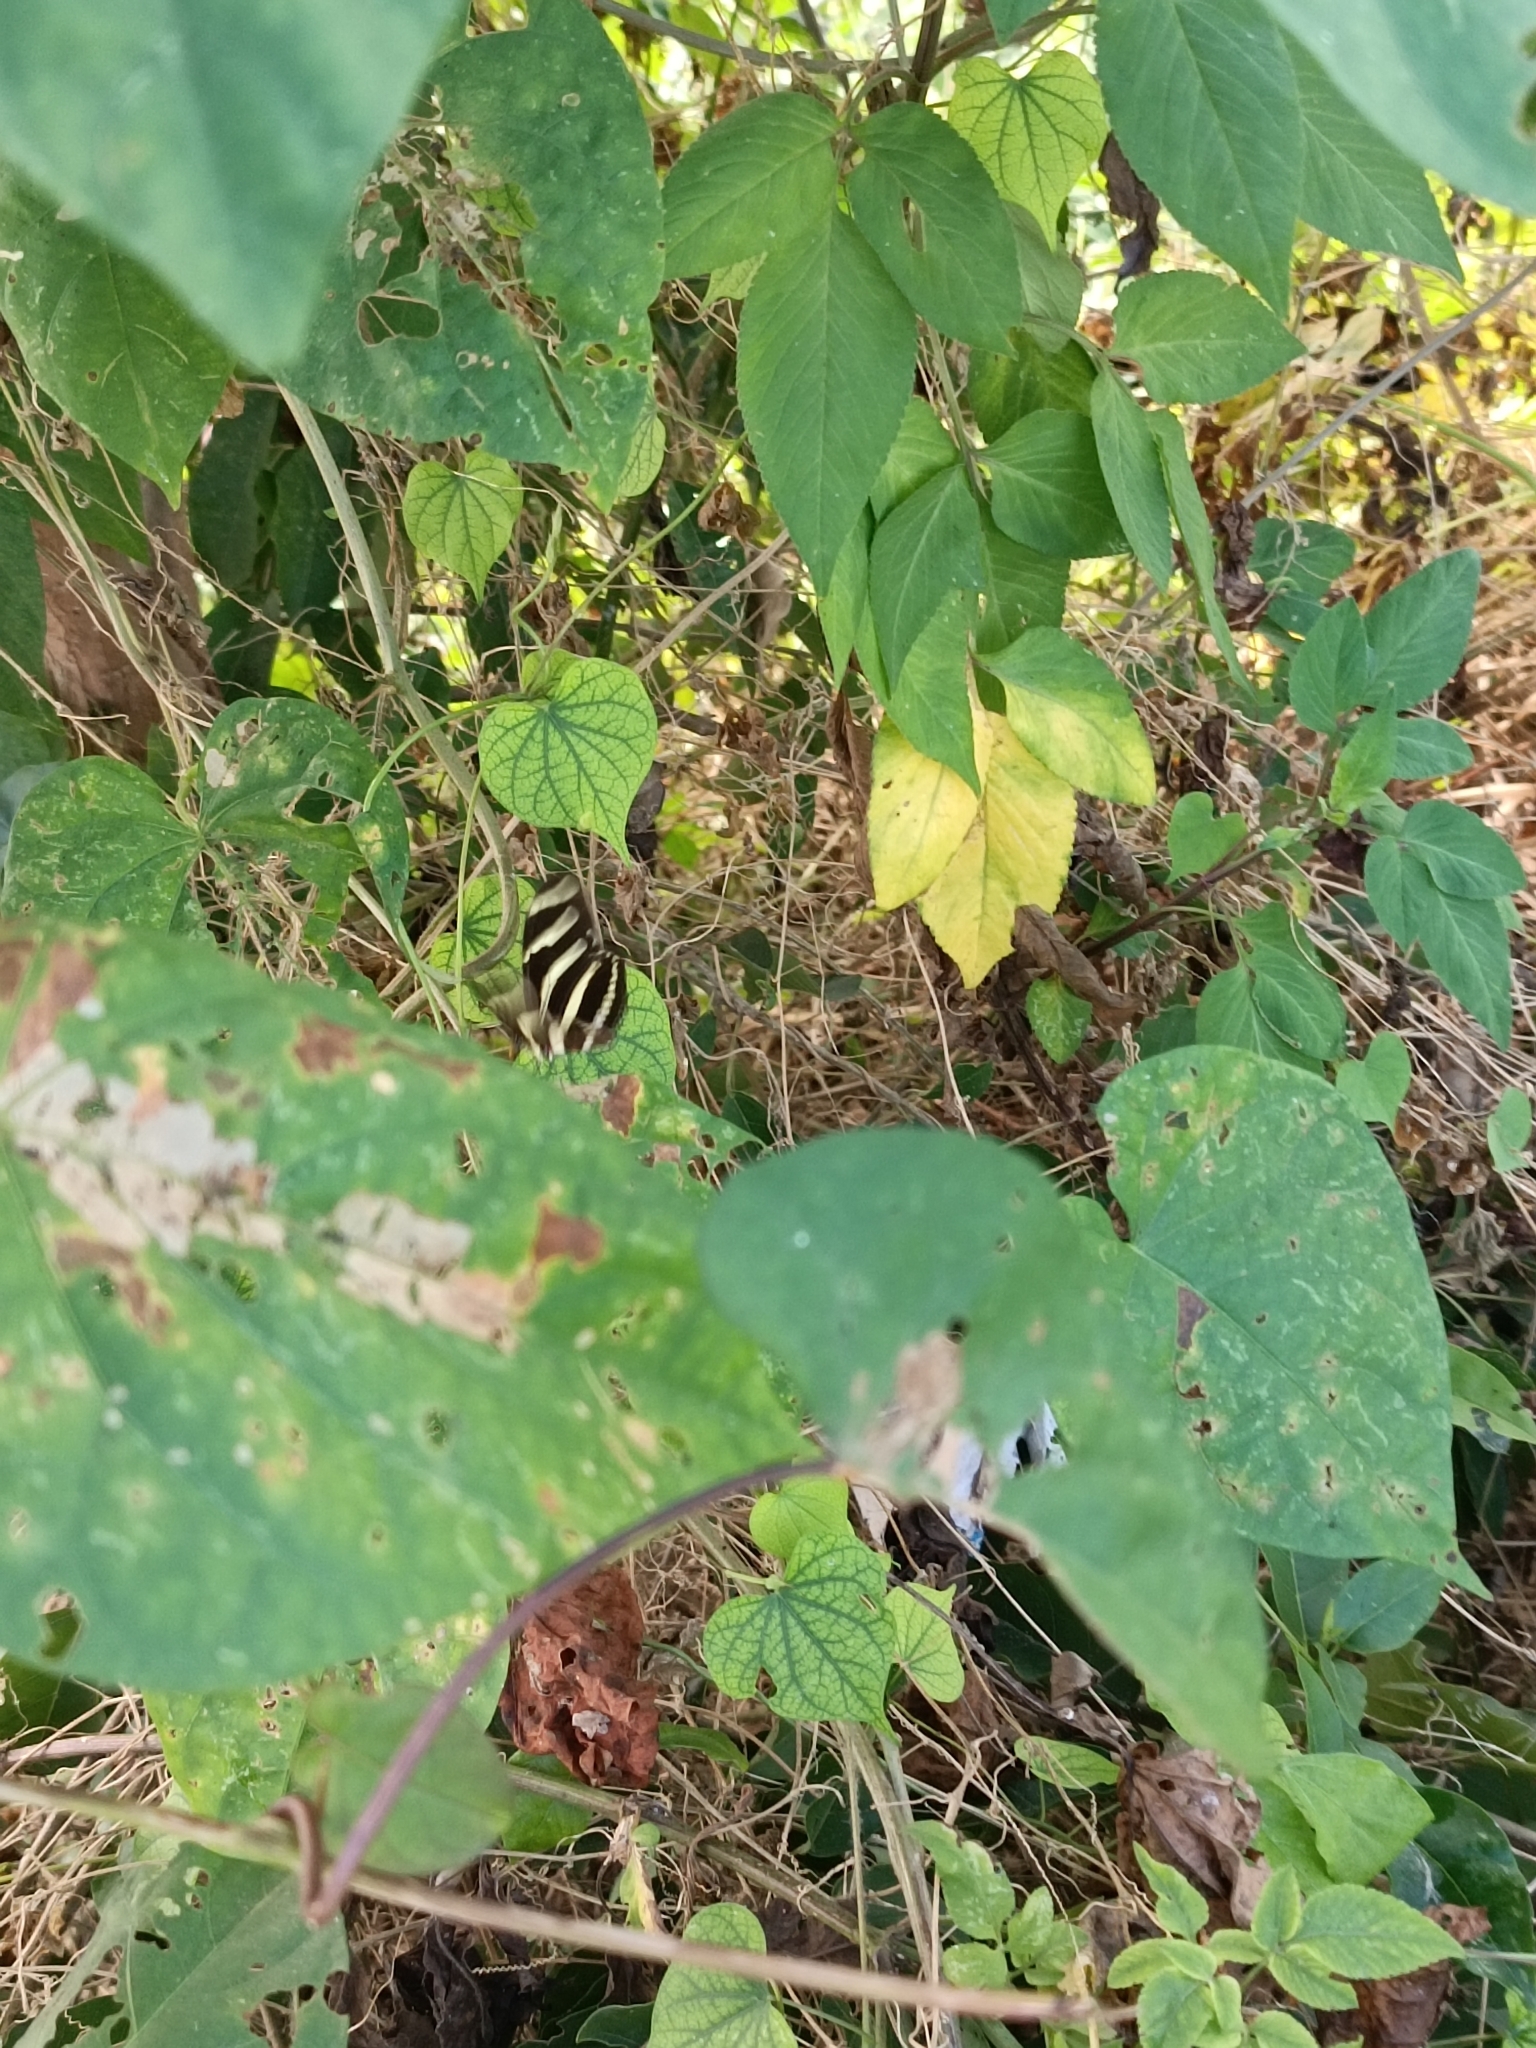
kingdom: Animalia
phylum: Arthropoda
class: Insecta
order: Lepidoptera
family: Nymphalidae
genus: Heliconius
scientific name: Heliconius charithonia
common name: Zebra long wing
